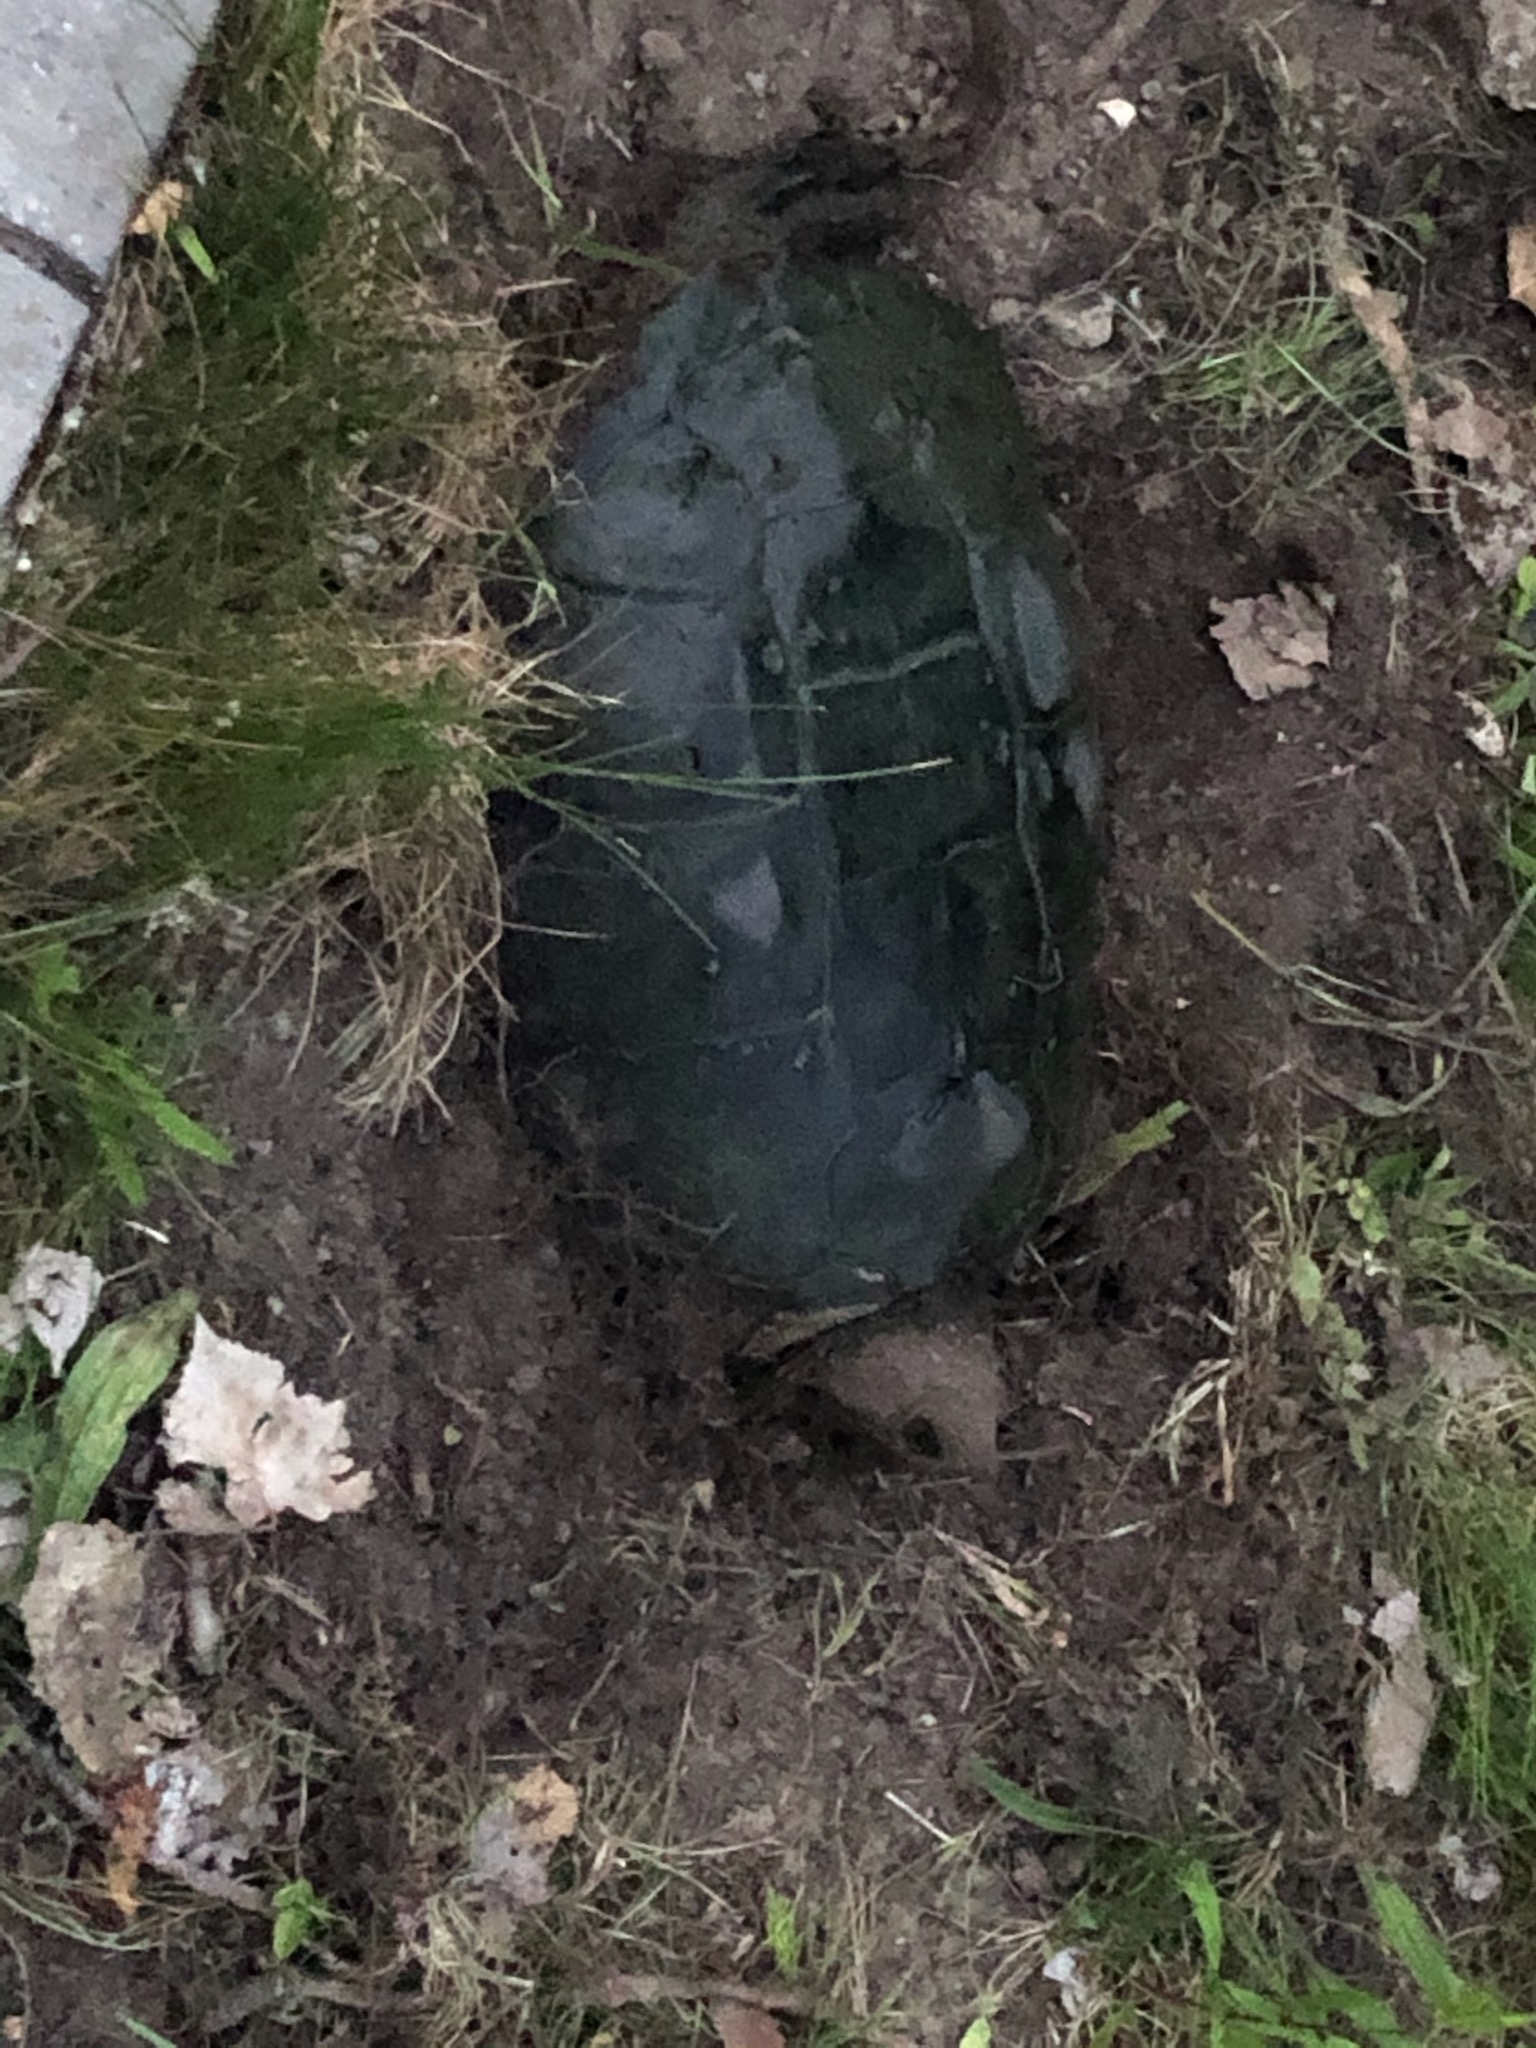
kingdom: Animalia
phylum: Chordata
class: Testudines
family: Chelydridae
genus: Chelydra
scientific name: Chelydra serpentina
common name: Common snapping turtle
